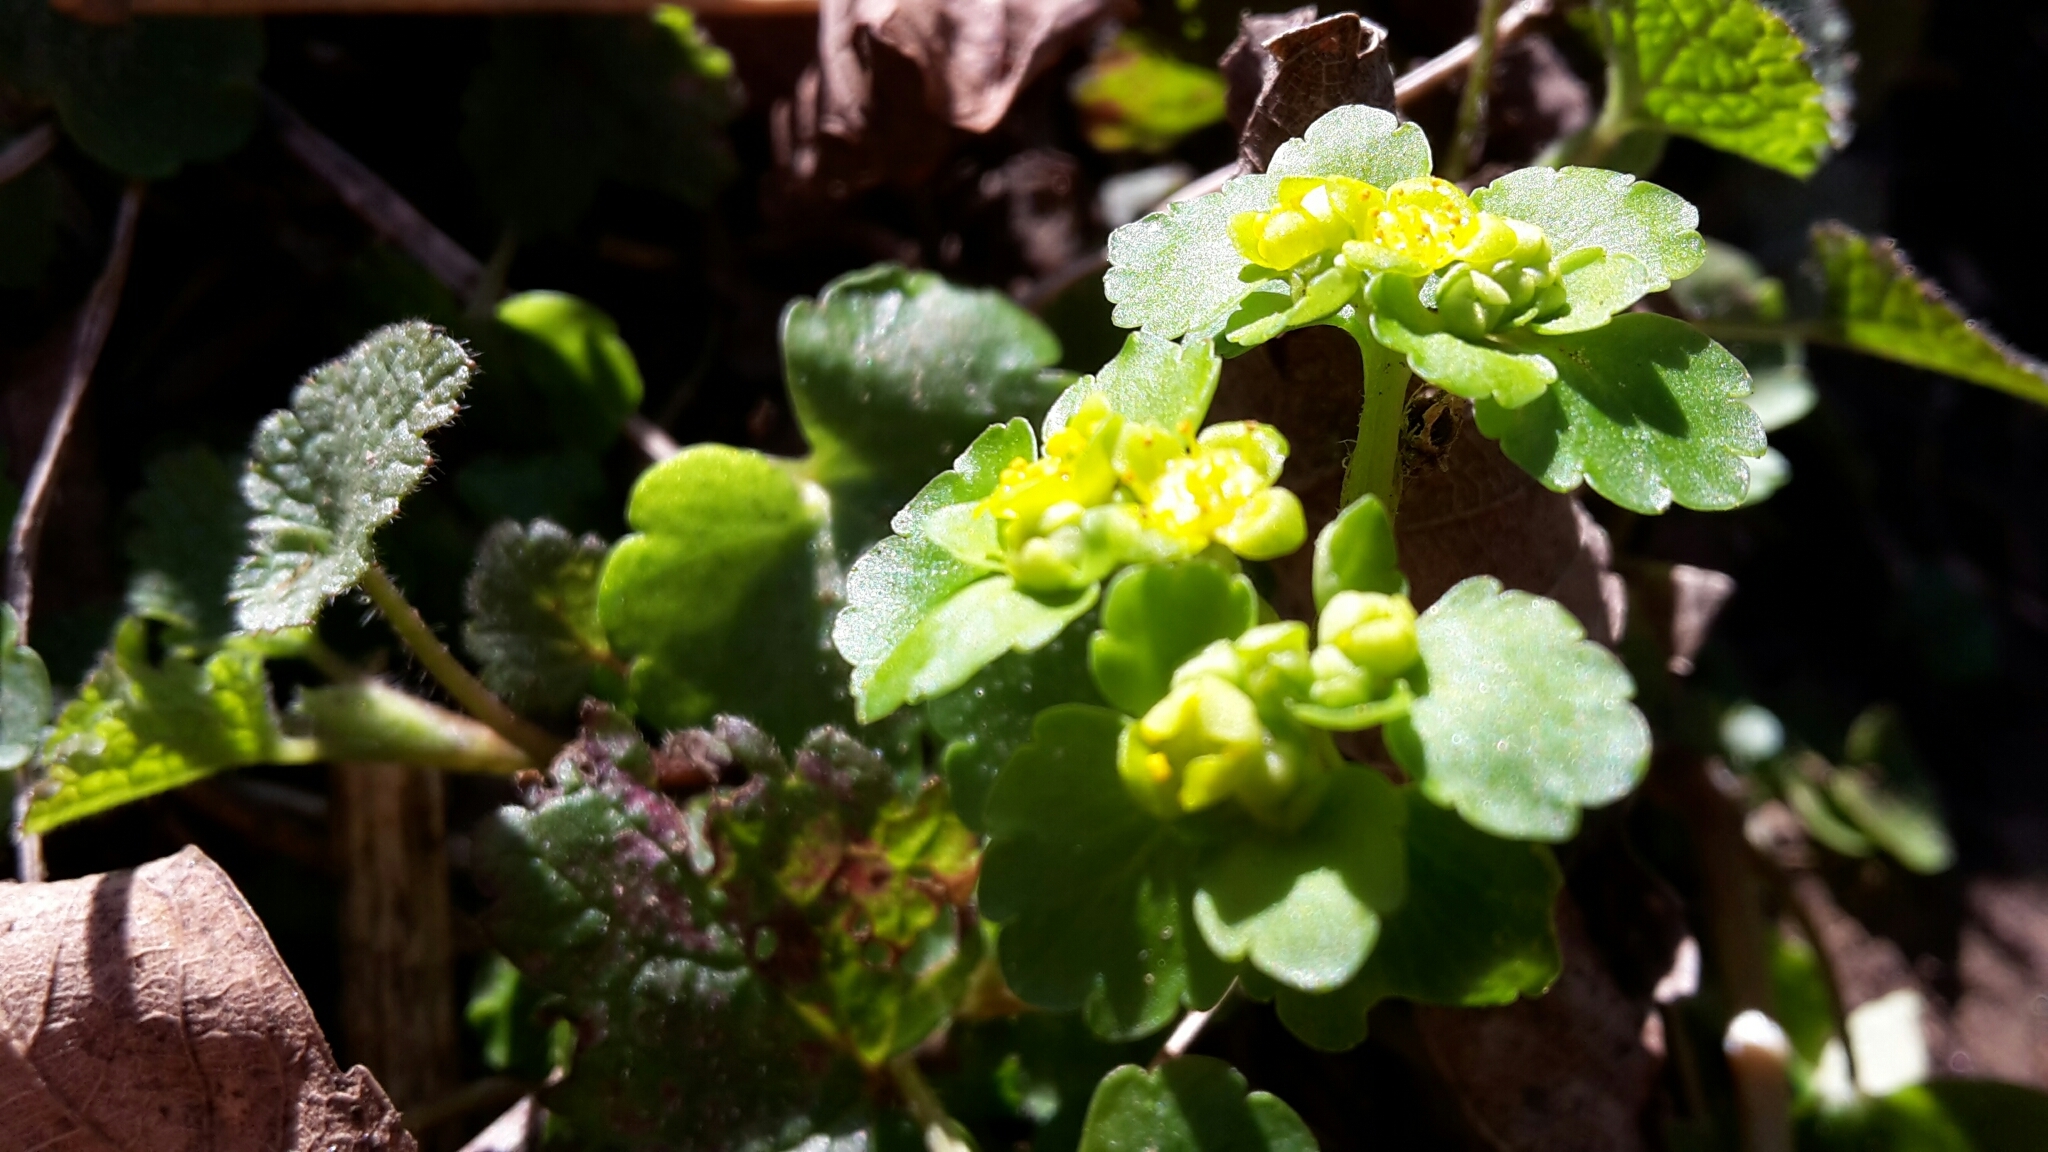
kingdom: Plantae
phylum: Tracheophyta
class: Magnoliopsida
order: Saxifragales
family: Saxifragaceae
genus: Chrysosplenium
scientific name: Chrysosplenium alternifolium
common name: Alternate-leaved golden-saxifrage
